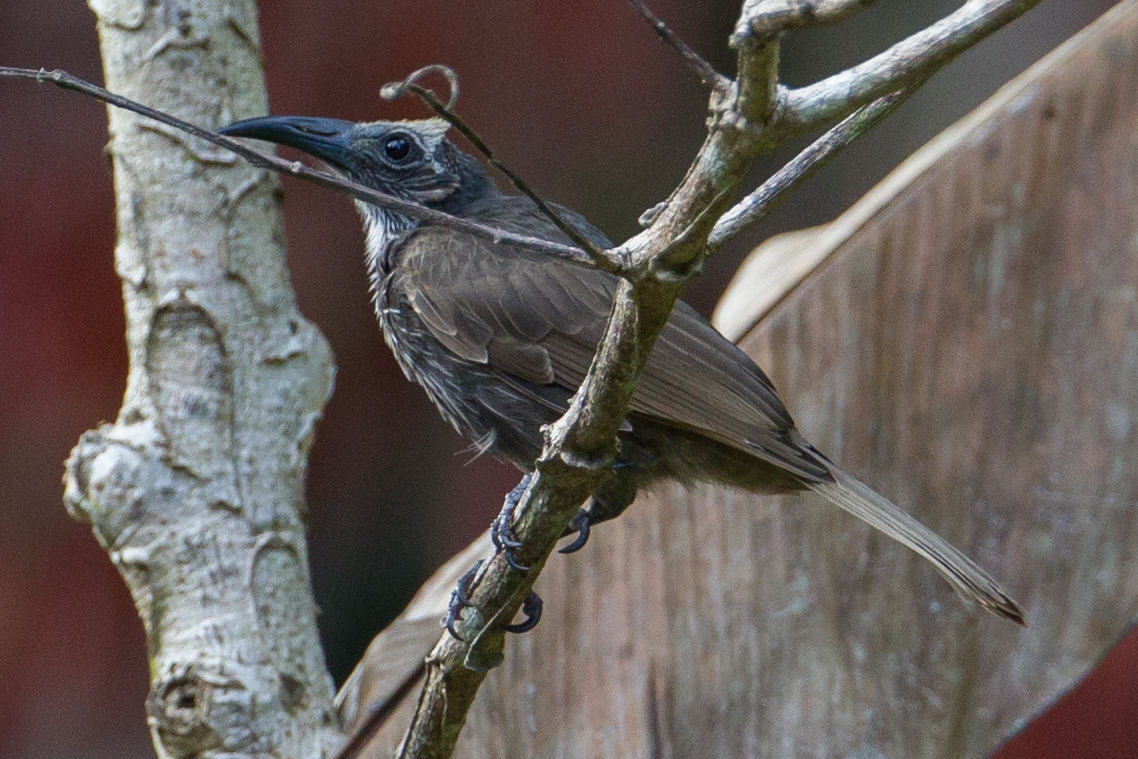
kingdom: Animalia
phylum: Chordata
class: Aves
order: Passeriformes
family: Meliphagidae
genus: Melitograis
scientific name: Melitograis gilolensis
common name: White-streaked friarbird
